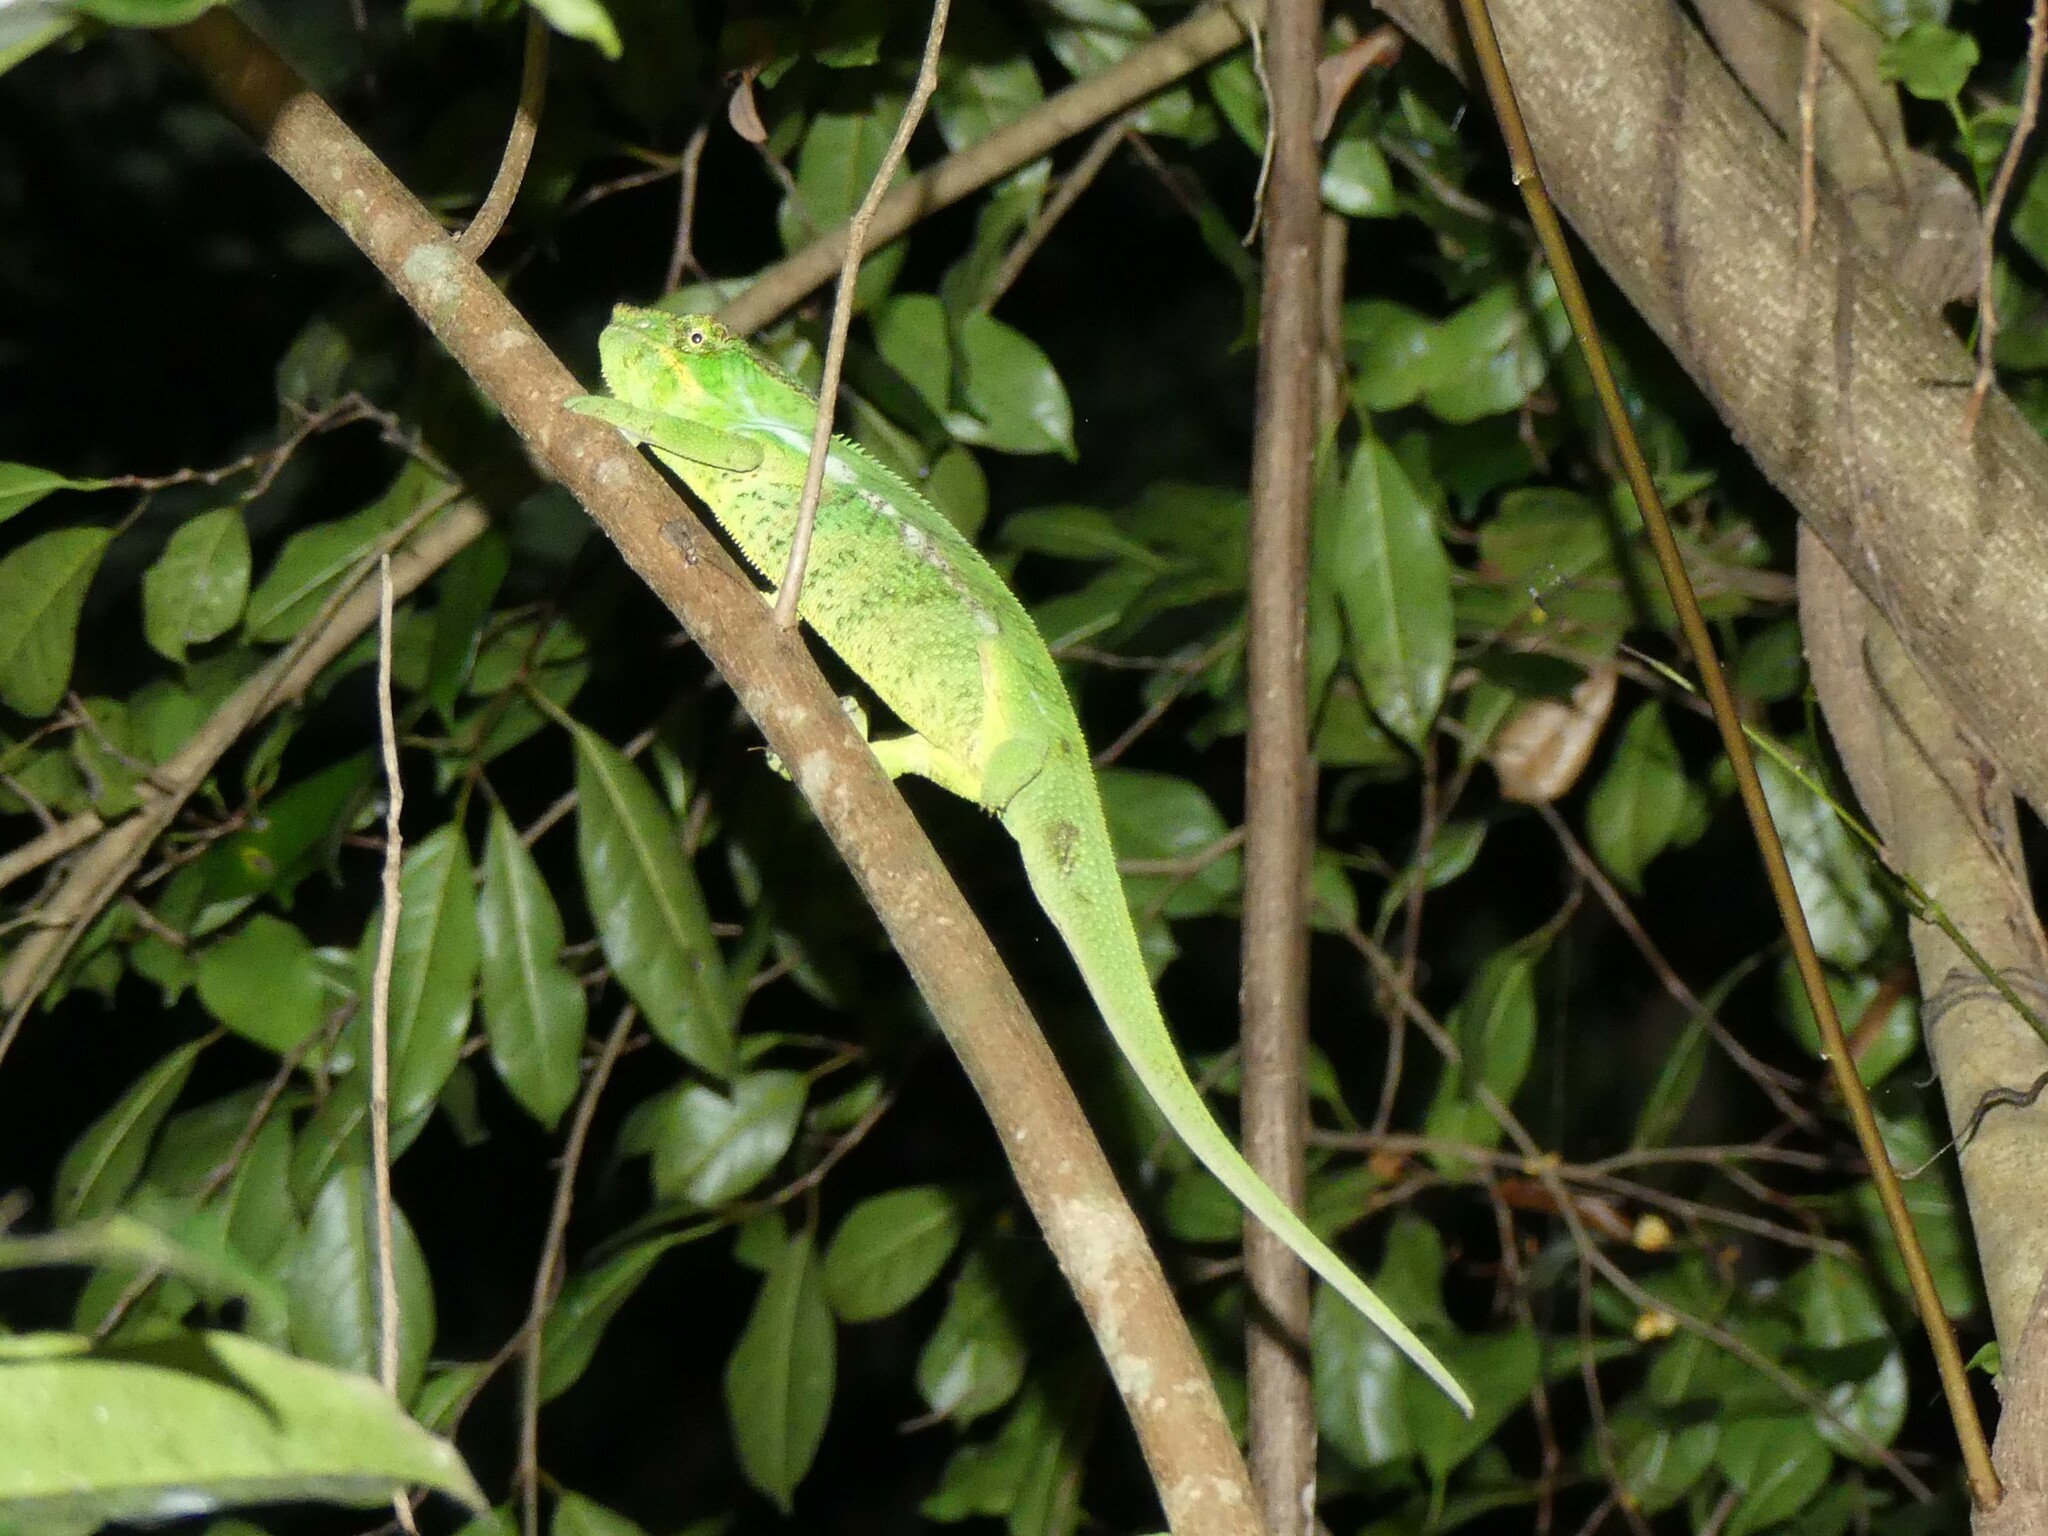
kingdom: Animalia
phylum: Chordata
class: Squamata
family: Chamaeleonidae
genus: Furcifer
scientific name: Furcifer pardalis
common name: Panther chameleon
